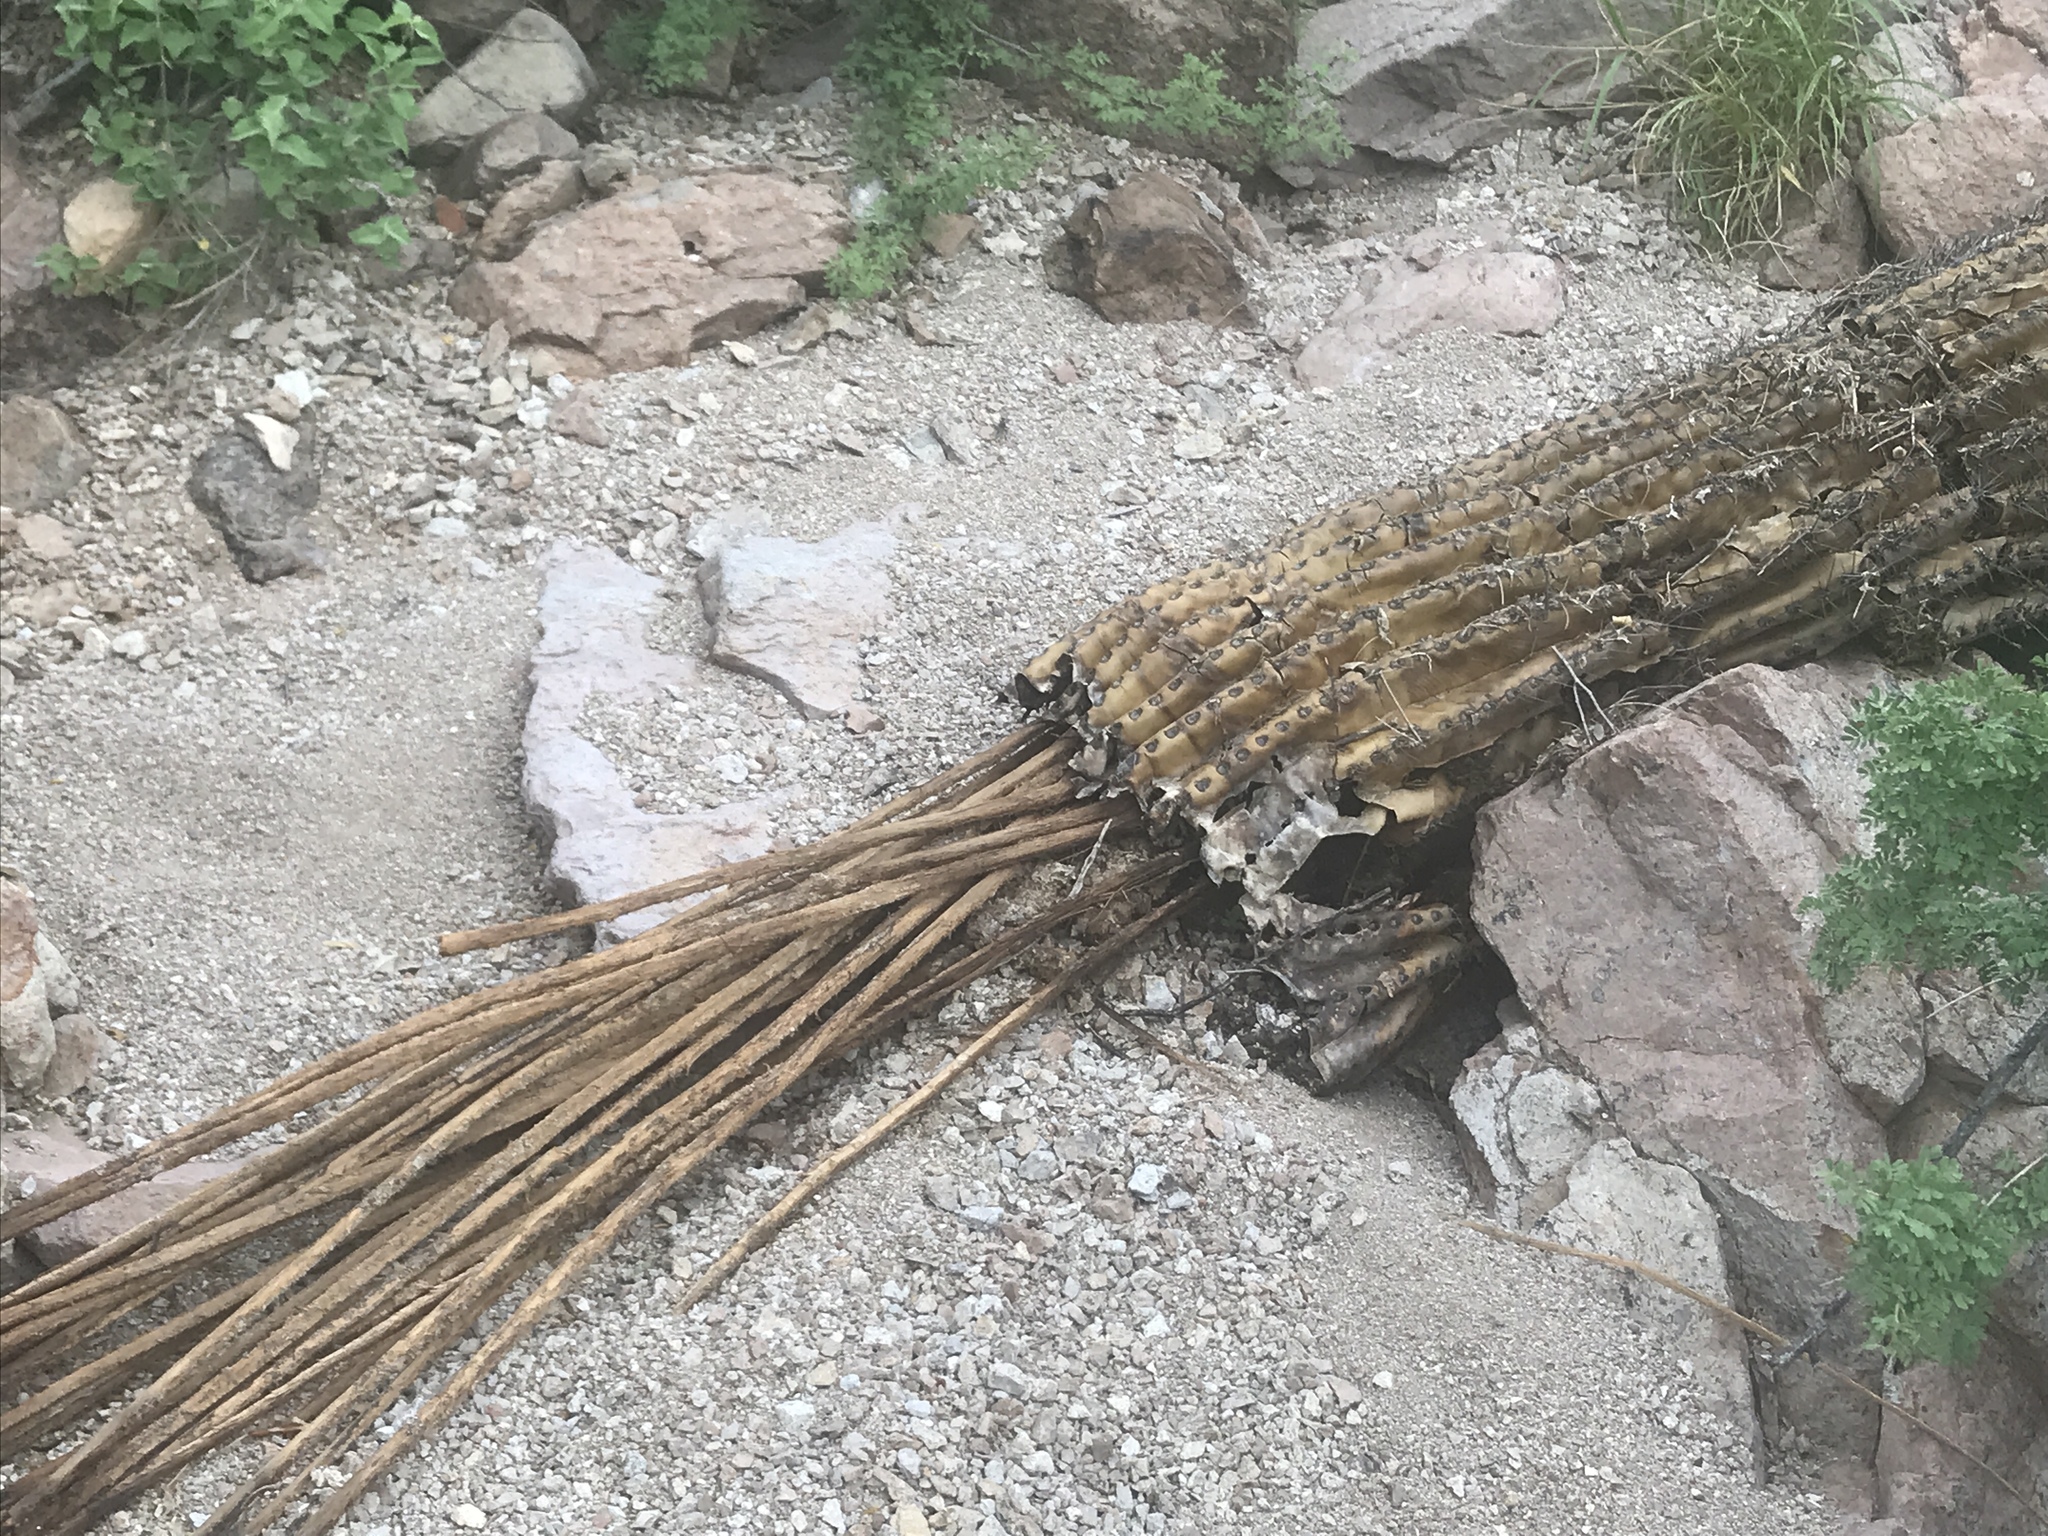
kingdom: Plantae
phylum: Tracheophyta
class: Magnoliopsida
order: Caryophyllales
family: Cactaceae
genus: Carnegiea
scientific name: Carnegiea gigantea
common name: Saguaro
